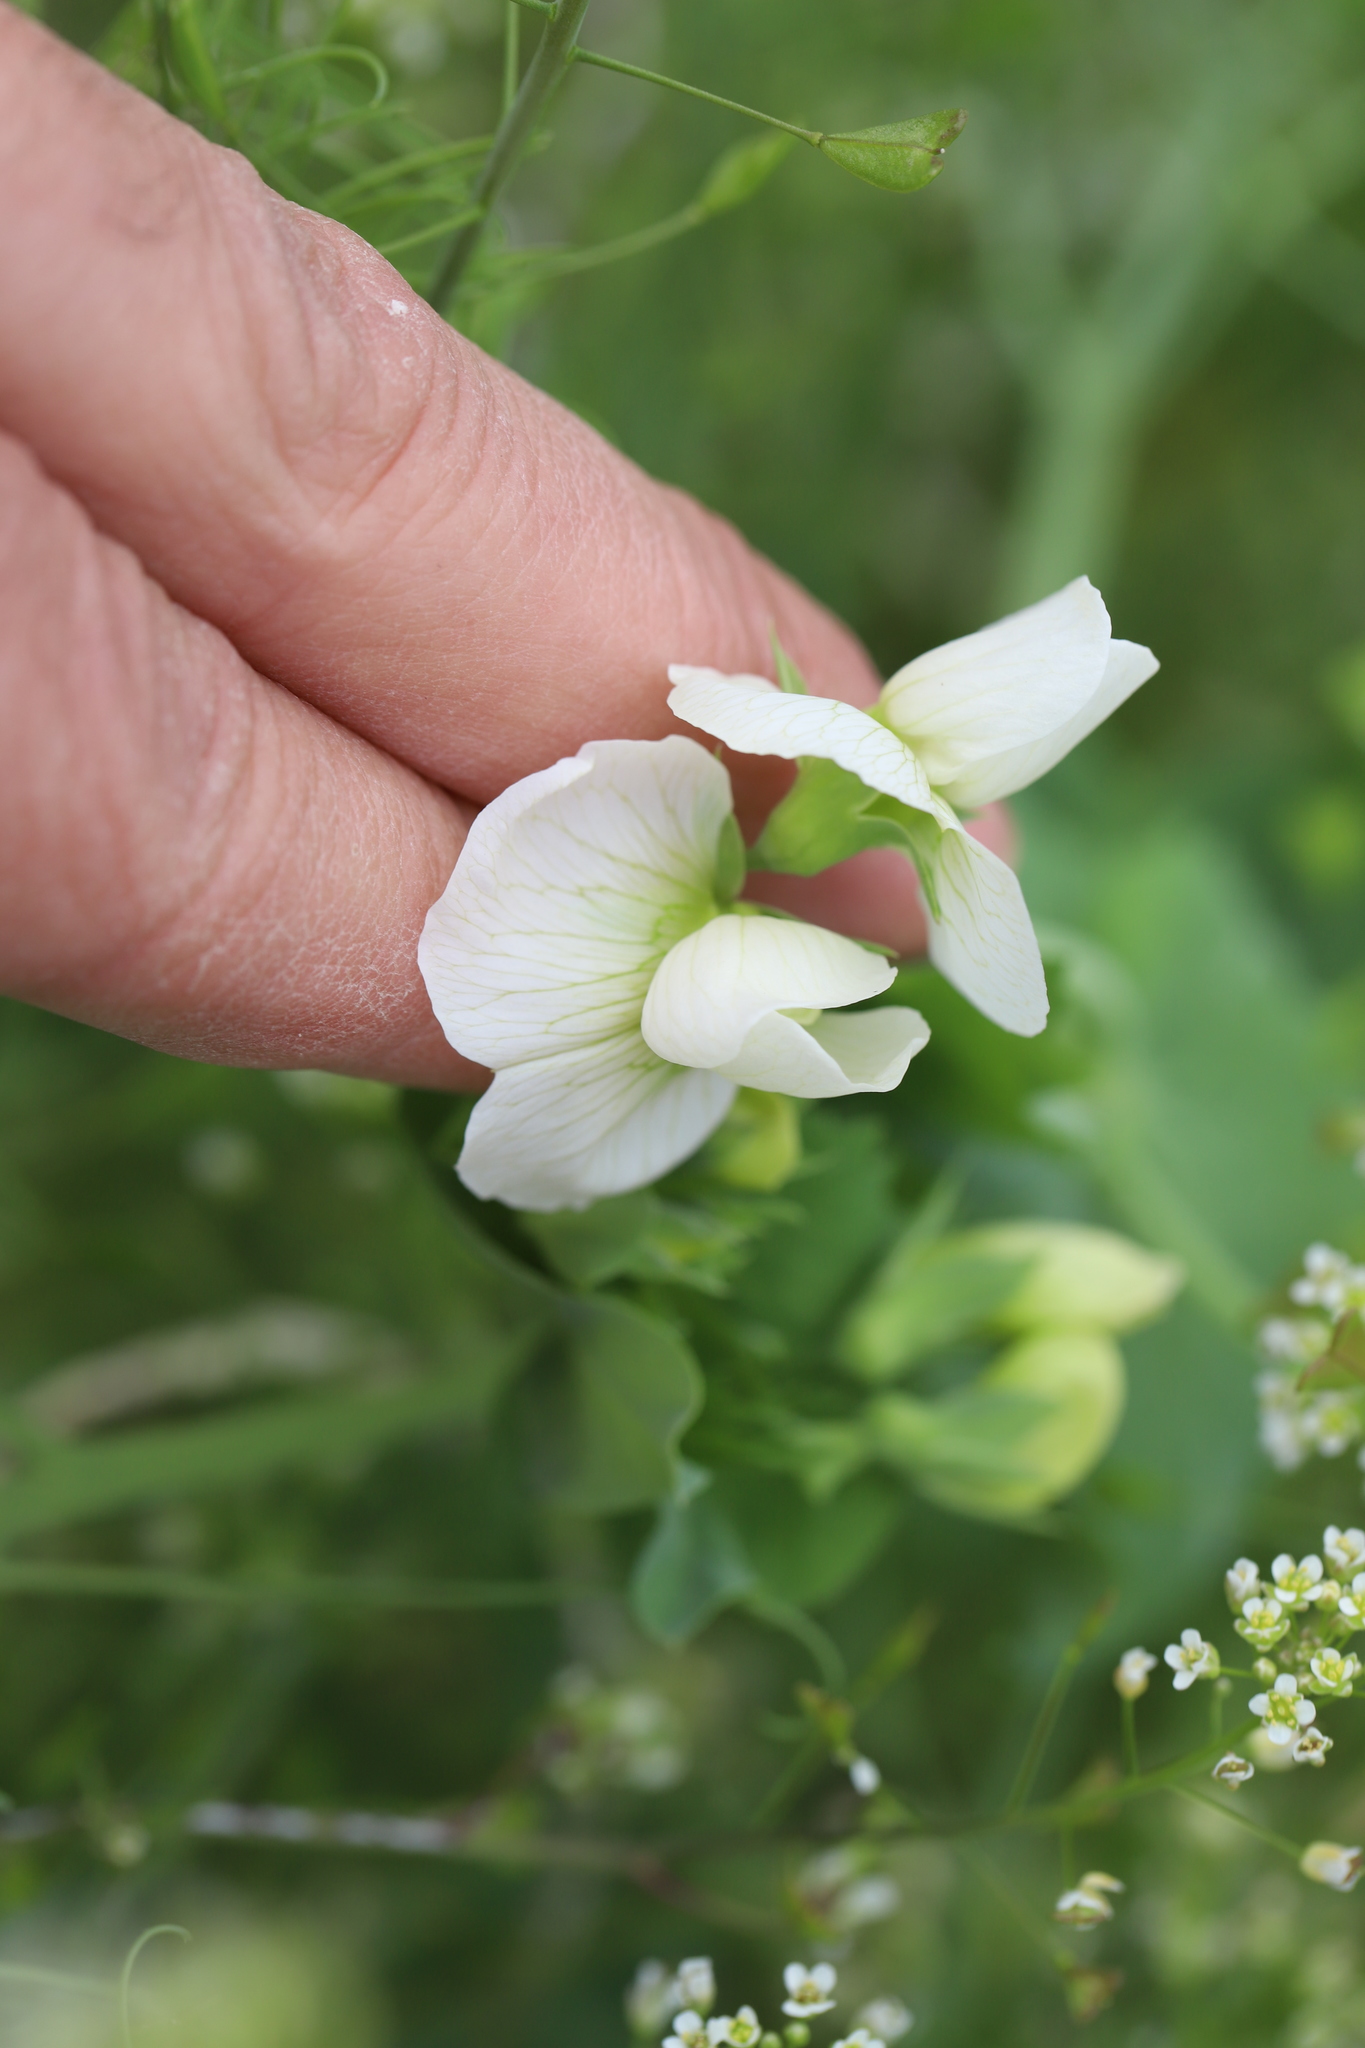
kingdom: Plantae
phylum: Tracheophyta
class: Magnoliopsida
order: Fabales
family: Fabaceae
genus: Lathyrus
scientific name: Lathyrus oleraceus
